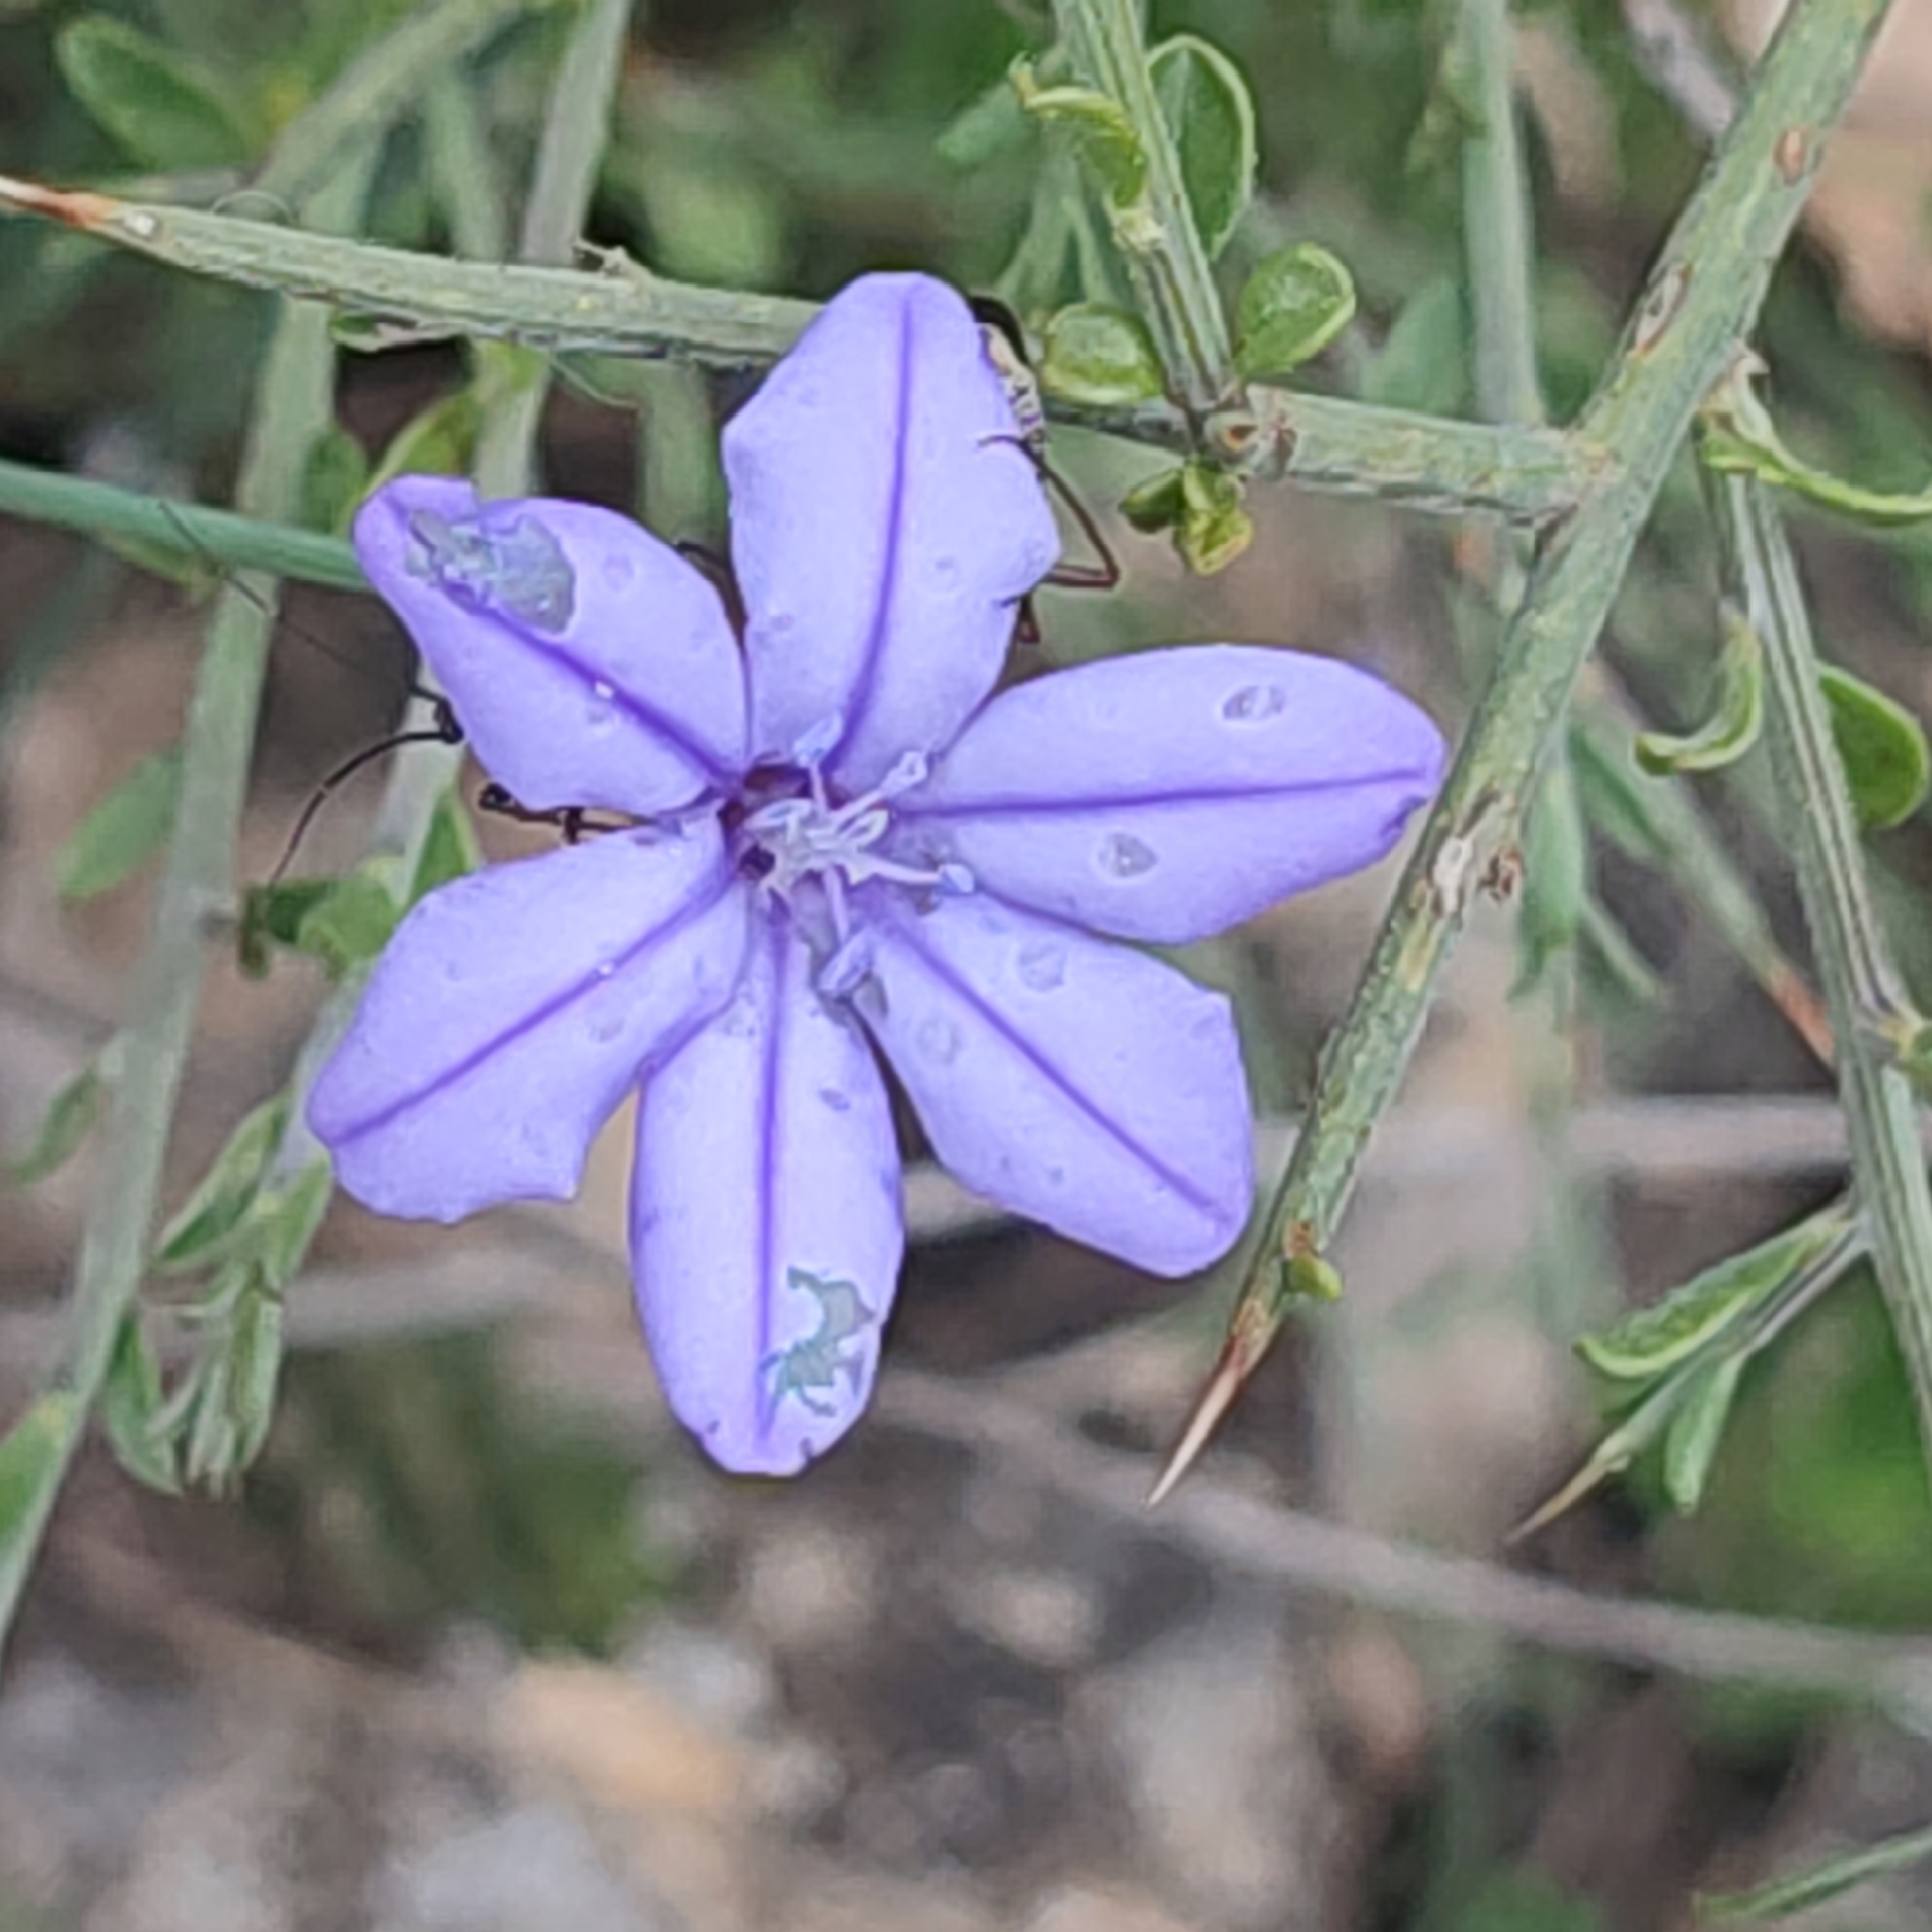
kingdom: Plantae
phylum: Tracheophyta
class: Liliopsida
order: Asparagales
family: Asparagaceae
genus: Aphyllanthes
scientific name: Aphyllanthes monspeliensis
